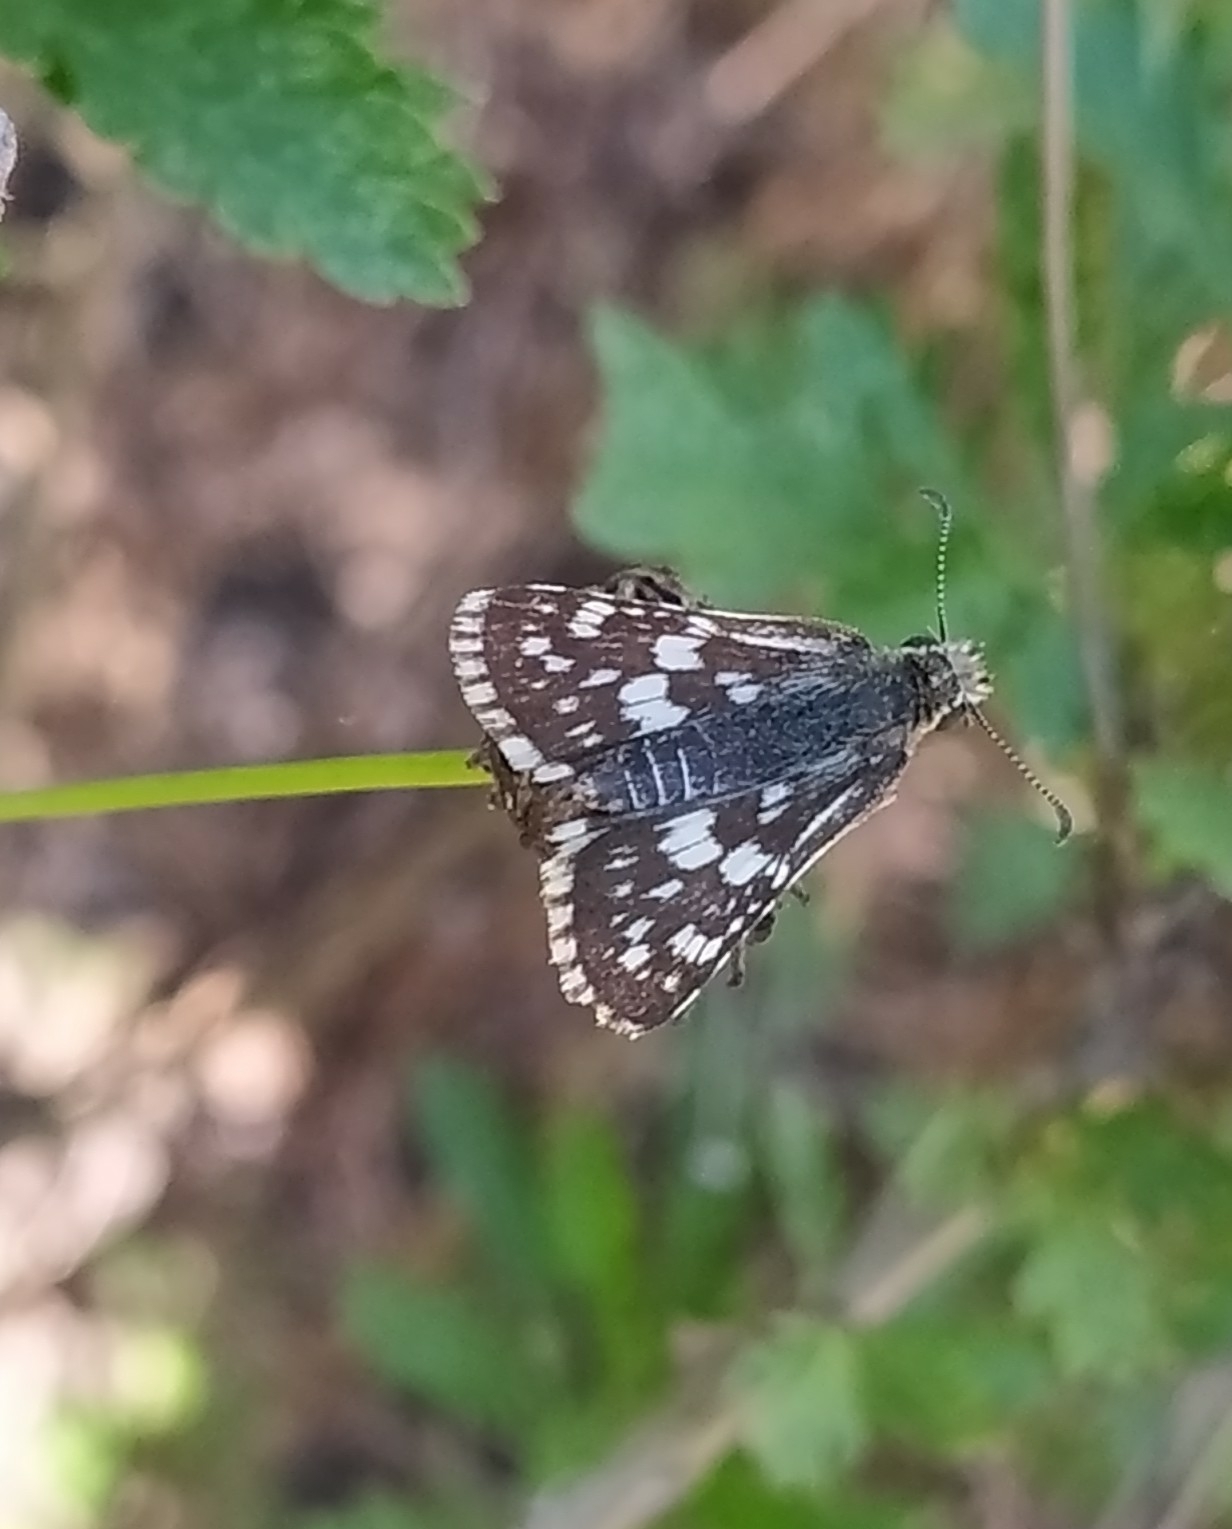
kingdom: Animalia
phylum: Arthropoda
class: Insecta
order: Lepidoptera
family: Hesperiidae
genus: Burnsius
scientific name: Burnsius orcynoides
